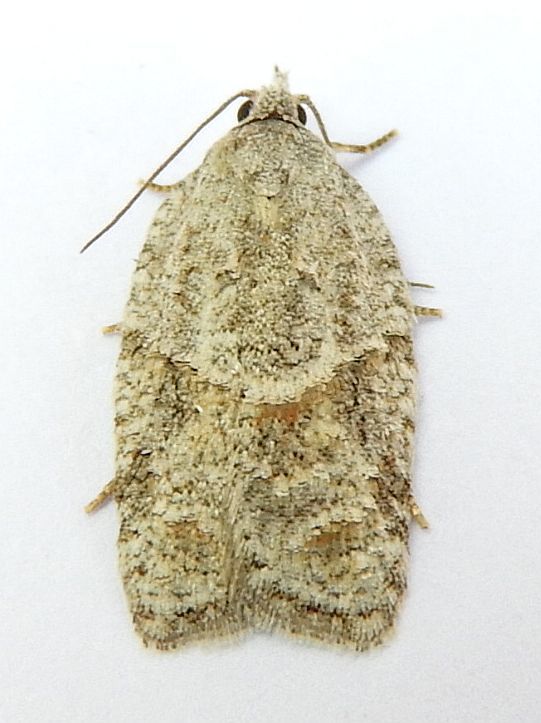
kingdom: Animalia
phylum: Arthropoda
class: Insecta
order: Lepidoptera
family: Tortricidae
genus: Acleris
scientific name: Acleris placidana
